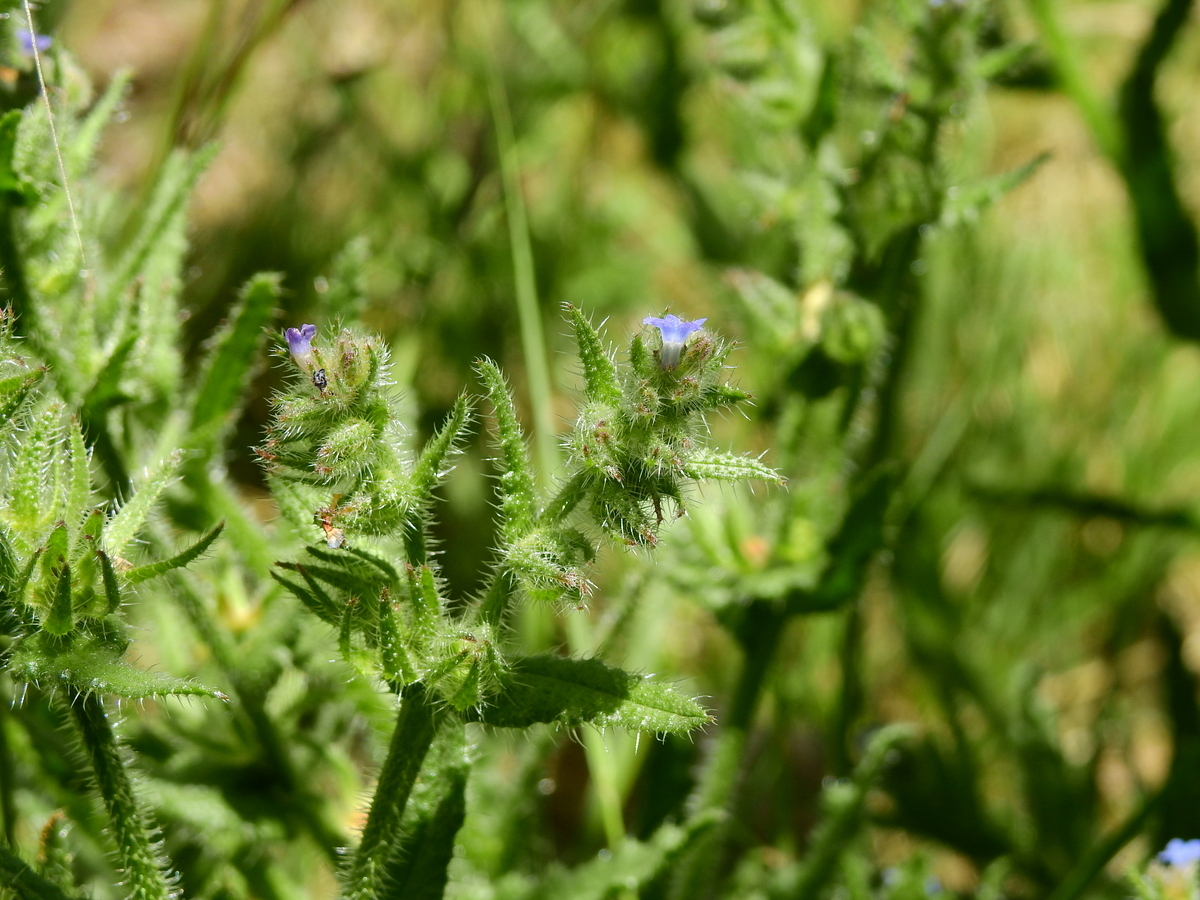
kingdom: Plantae
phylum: Tracheophyta
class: Magnoliopsida
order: Boraginales
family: Boraginaceae
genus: Lycopsis
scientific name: Lycopsis arvensis
